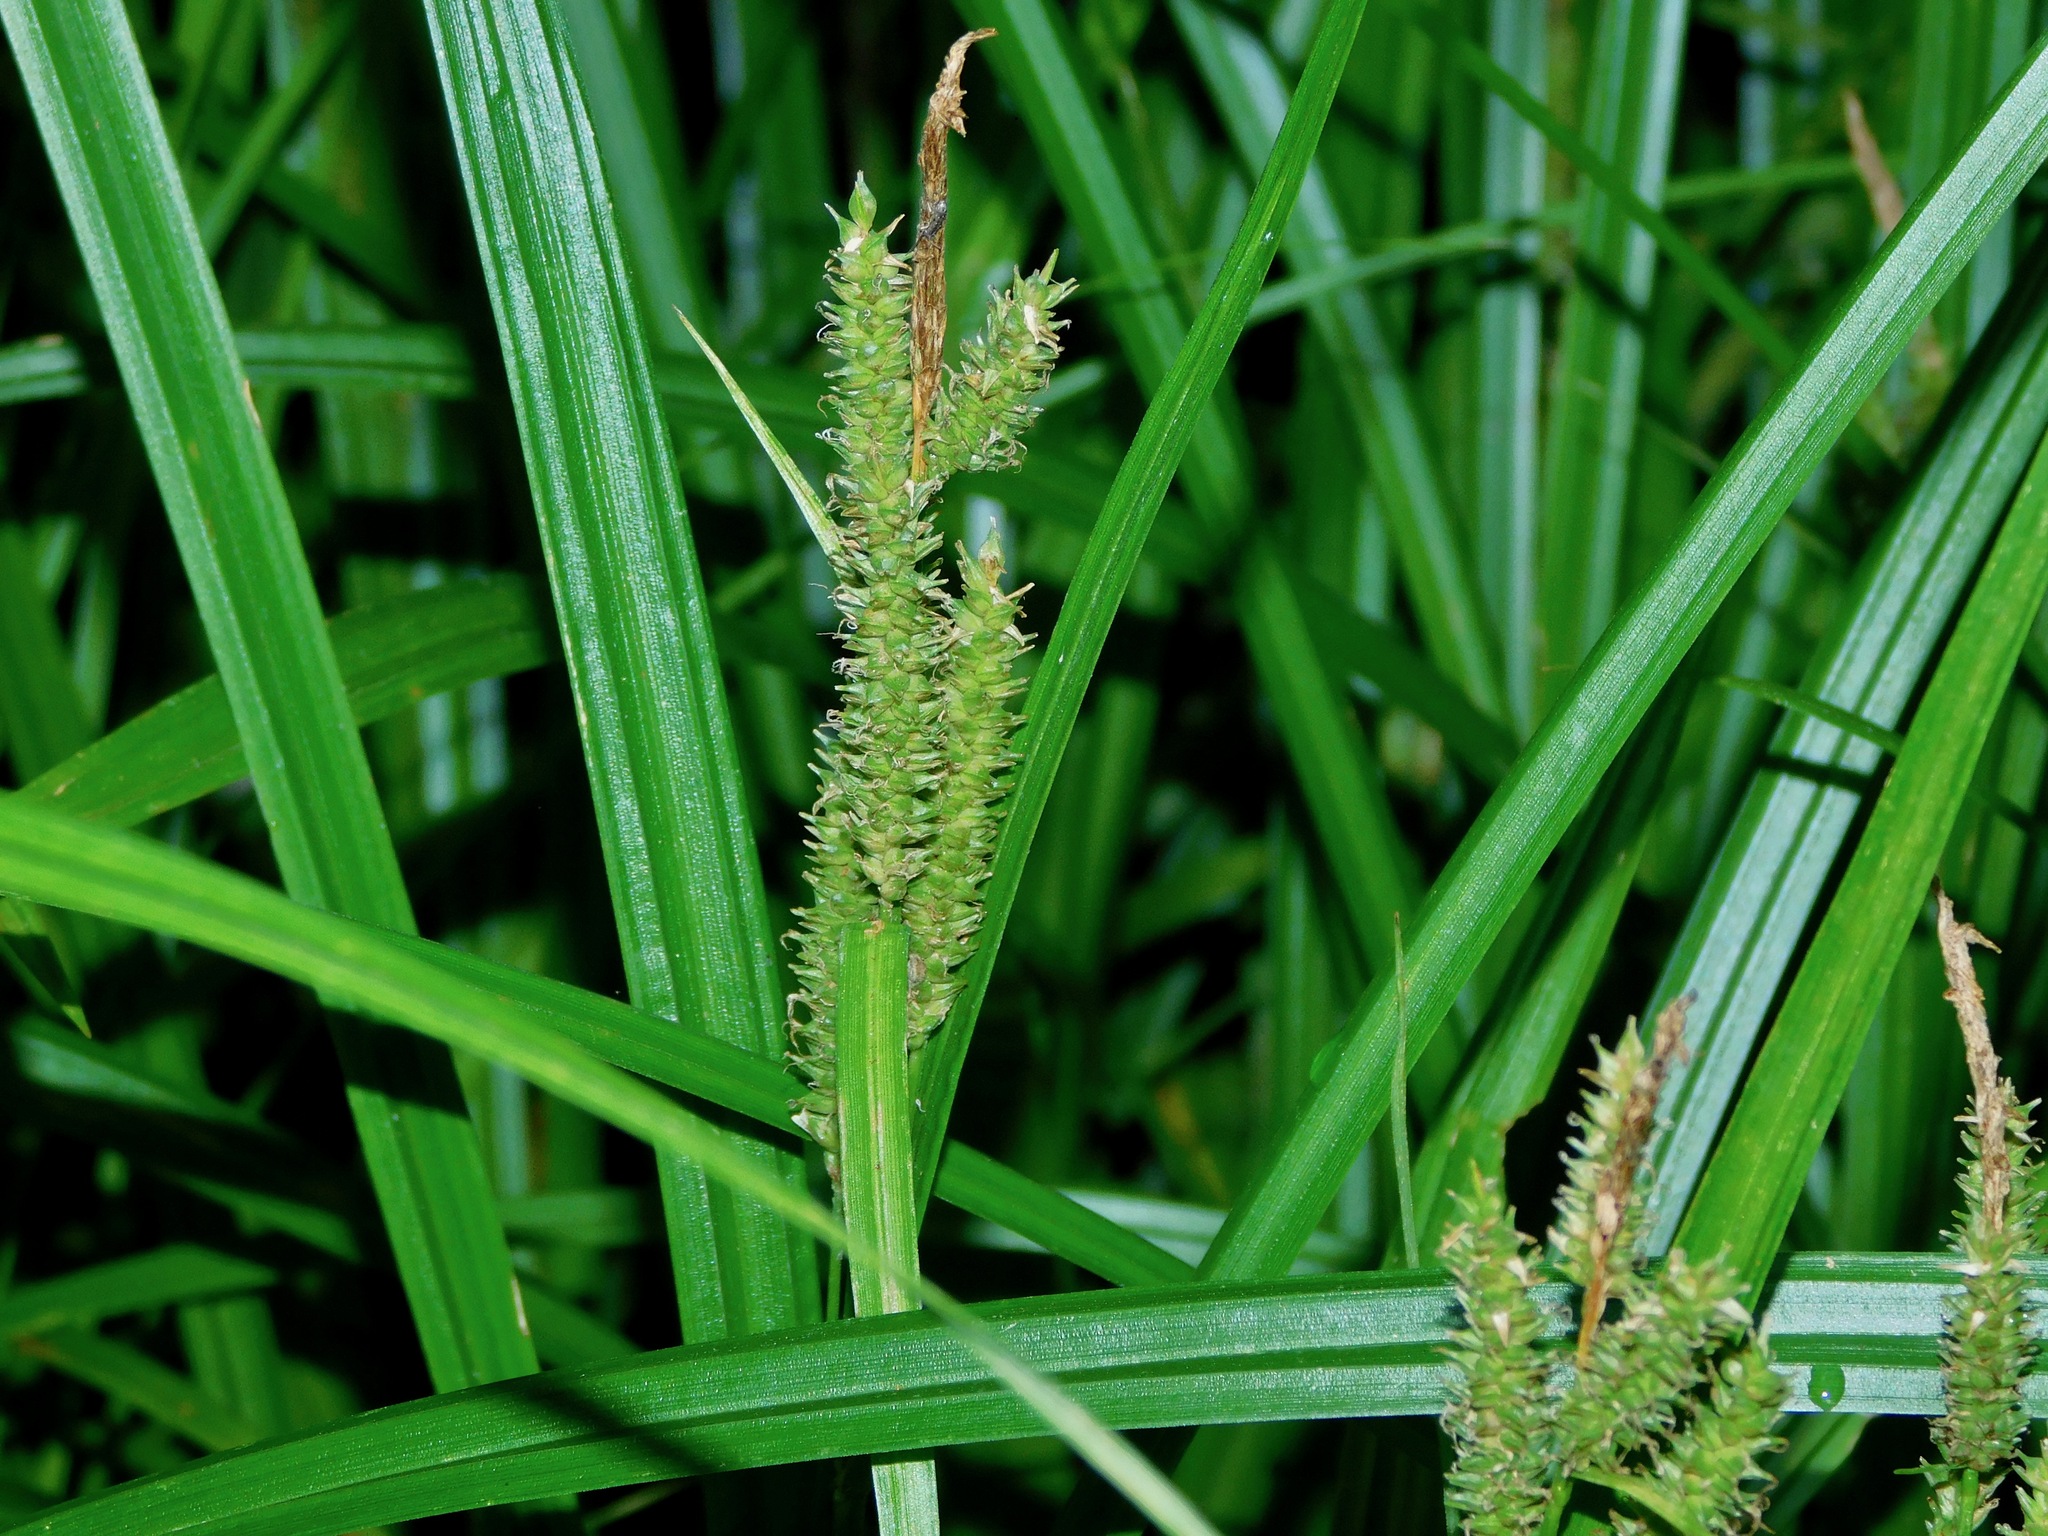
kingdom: Plantae
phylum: Tracheophyta
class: Liliopsida
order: Poales
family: Cyperaceae
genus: Carex
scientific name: Carex scabrata
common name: Eastern rough sedge
